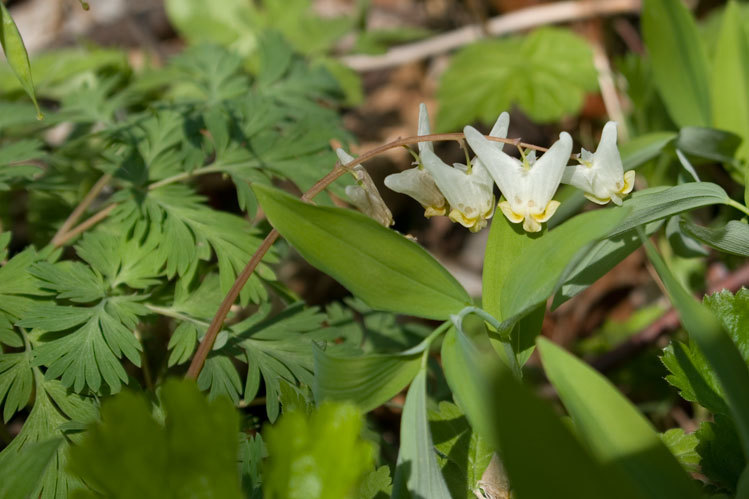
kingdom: Plantae
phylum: Tracheophyta
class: Magnoliopsida
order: Ranunculales
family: Papaveraceae
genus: Dicentra
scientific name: Dicentra cucullaria
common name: Dutchman's breeches
